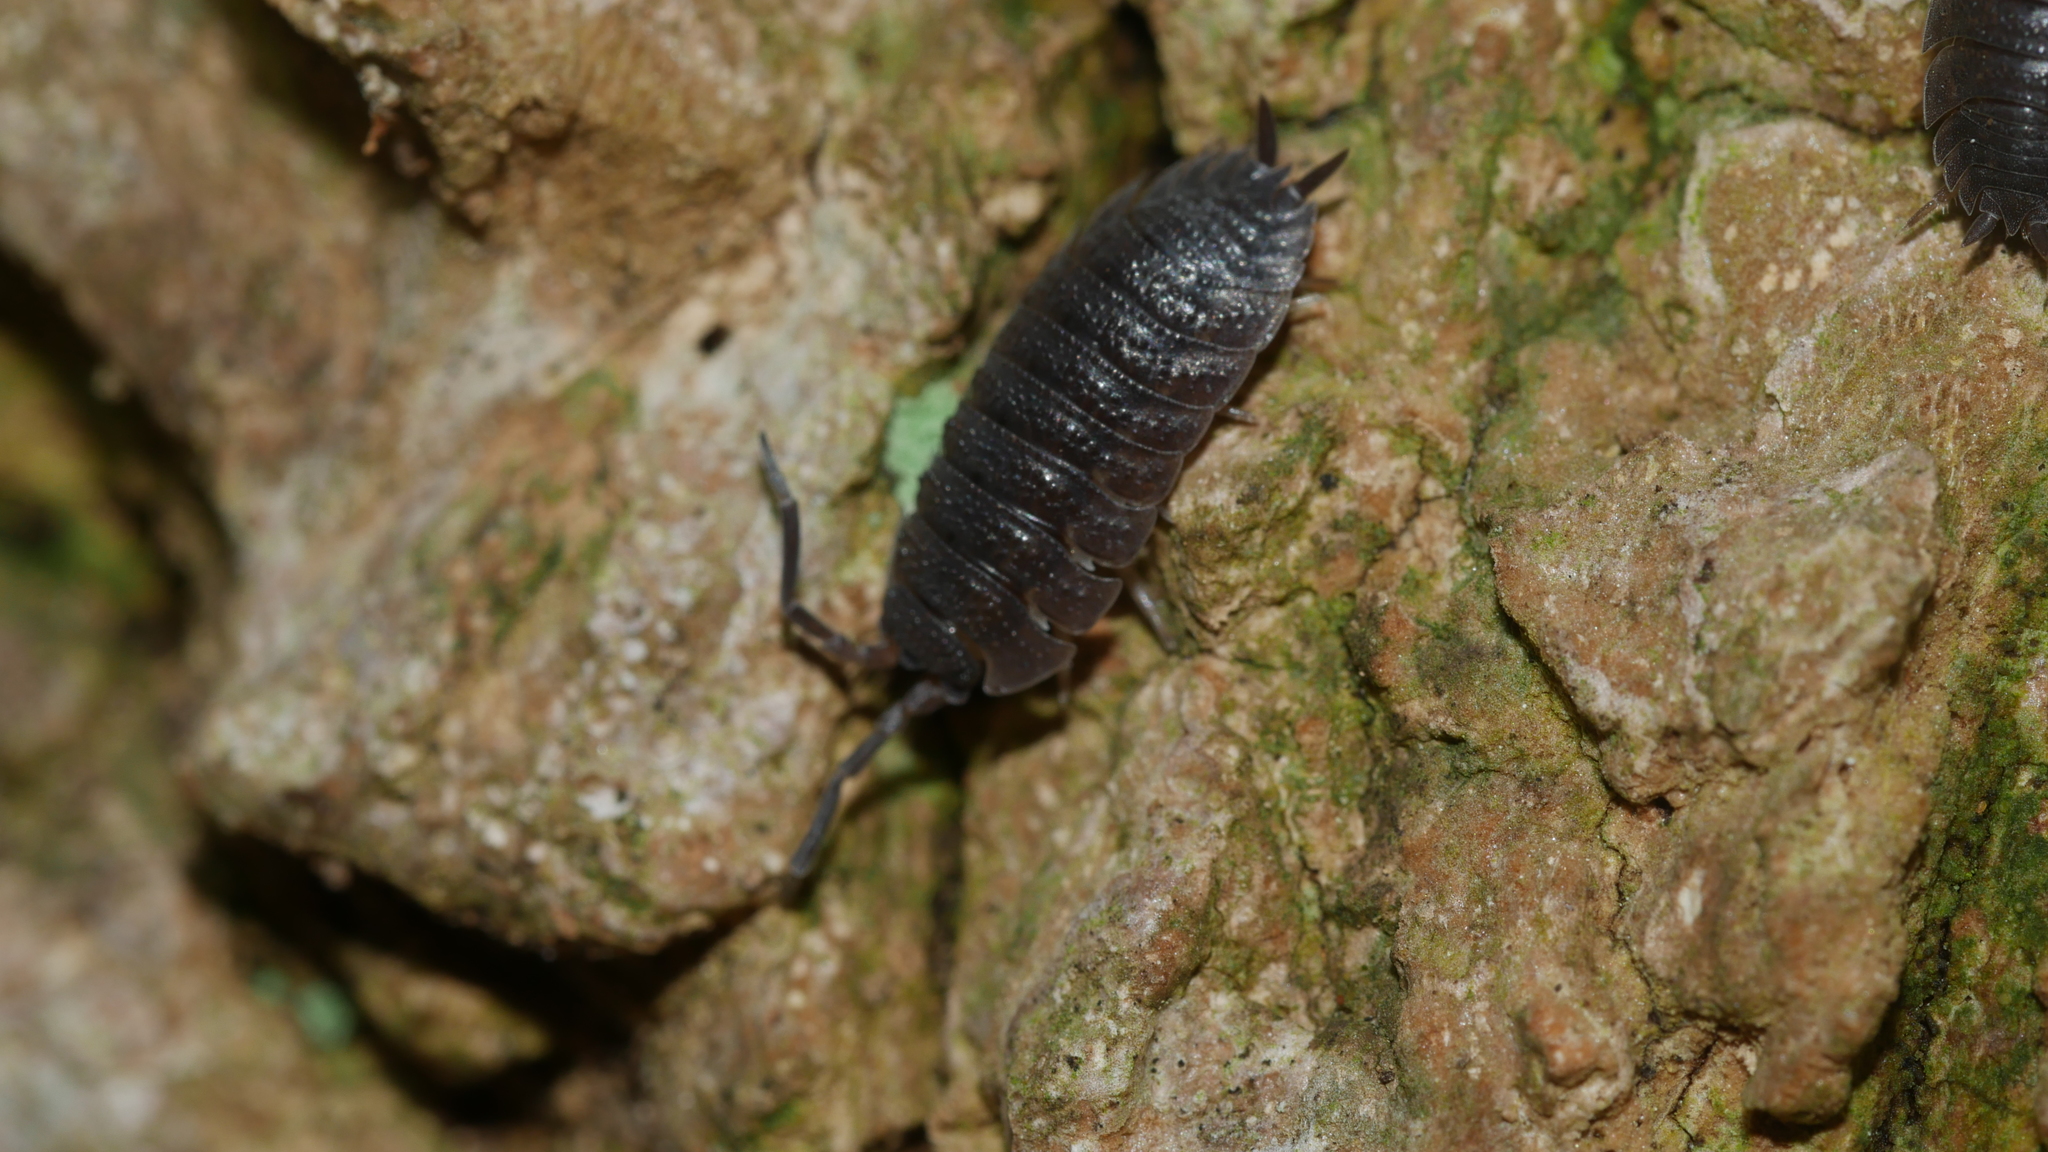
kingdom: Animalia
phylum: Arthropoda
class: Malacostraca
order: Isopoda
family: Porcellionidae
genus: Porcellio
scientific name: Porcellio scaber
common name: Common rough woodlouse
